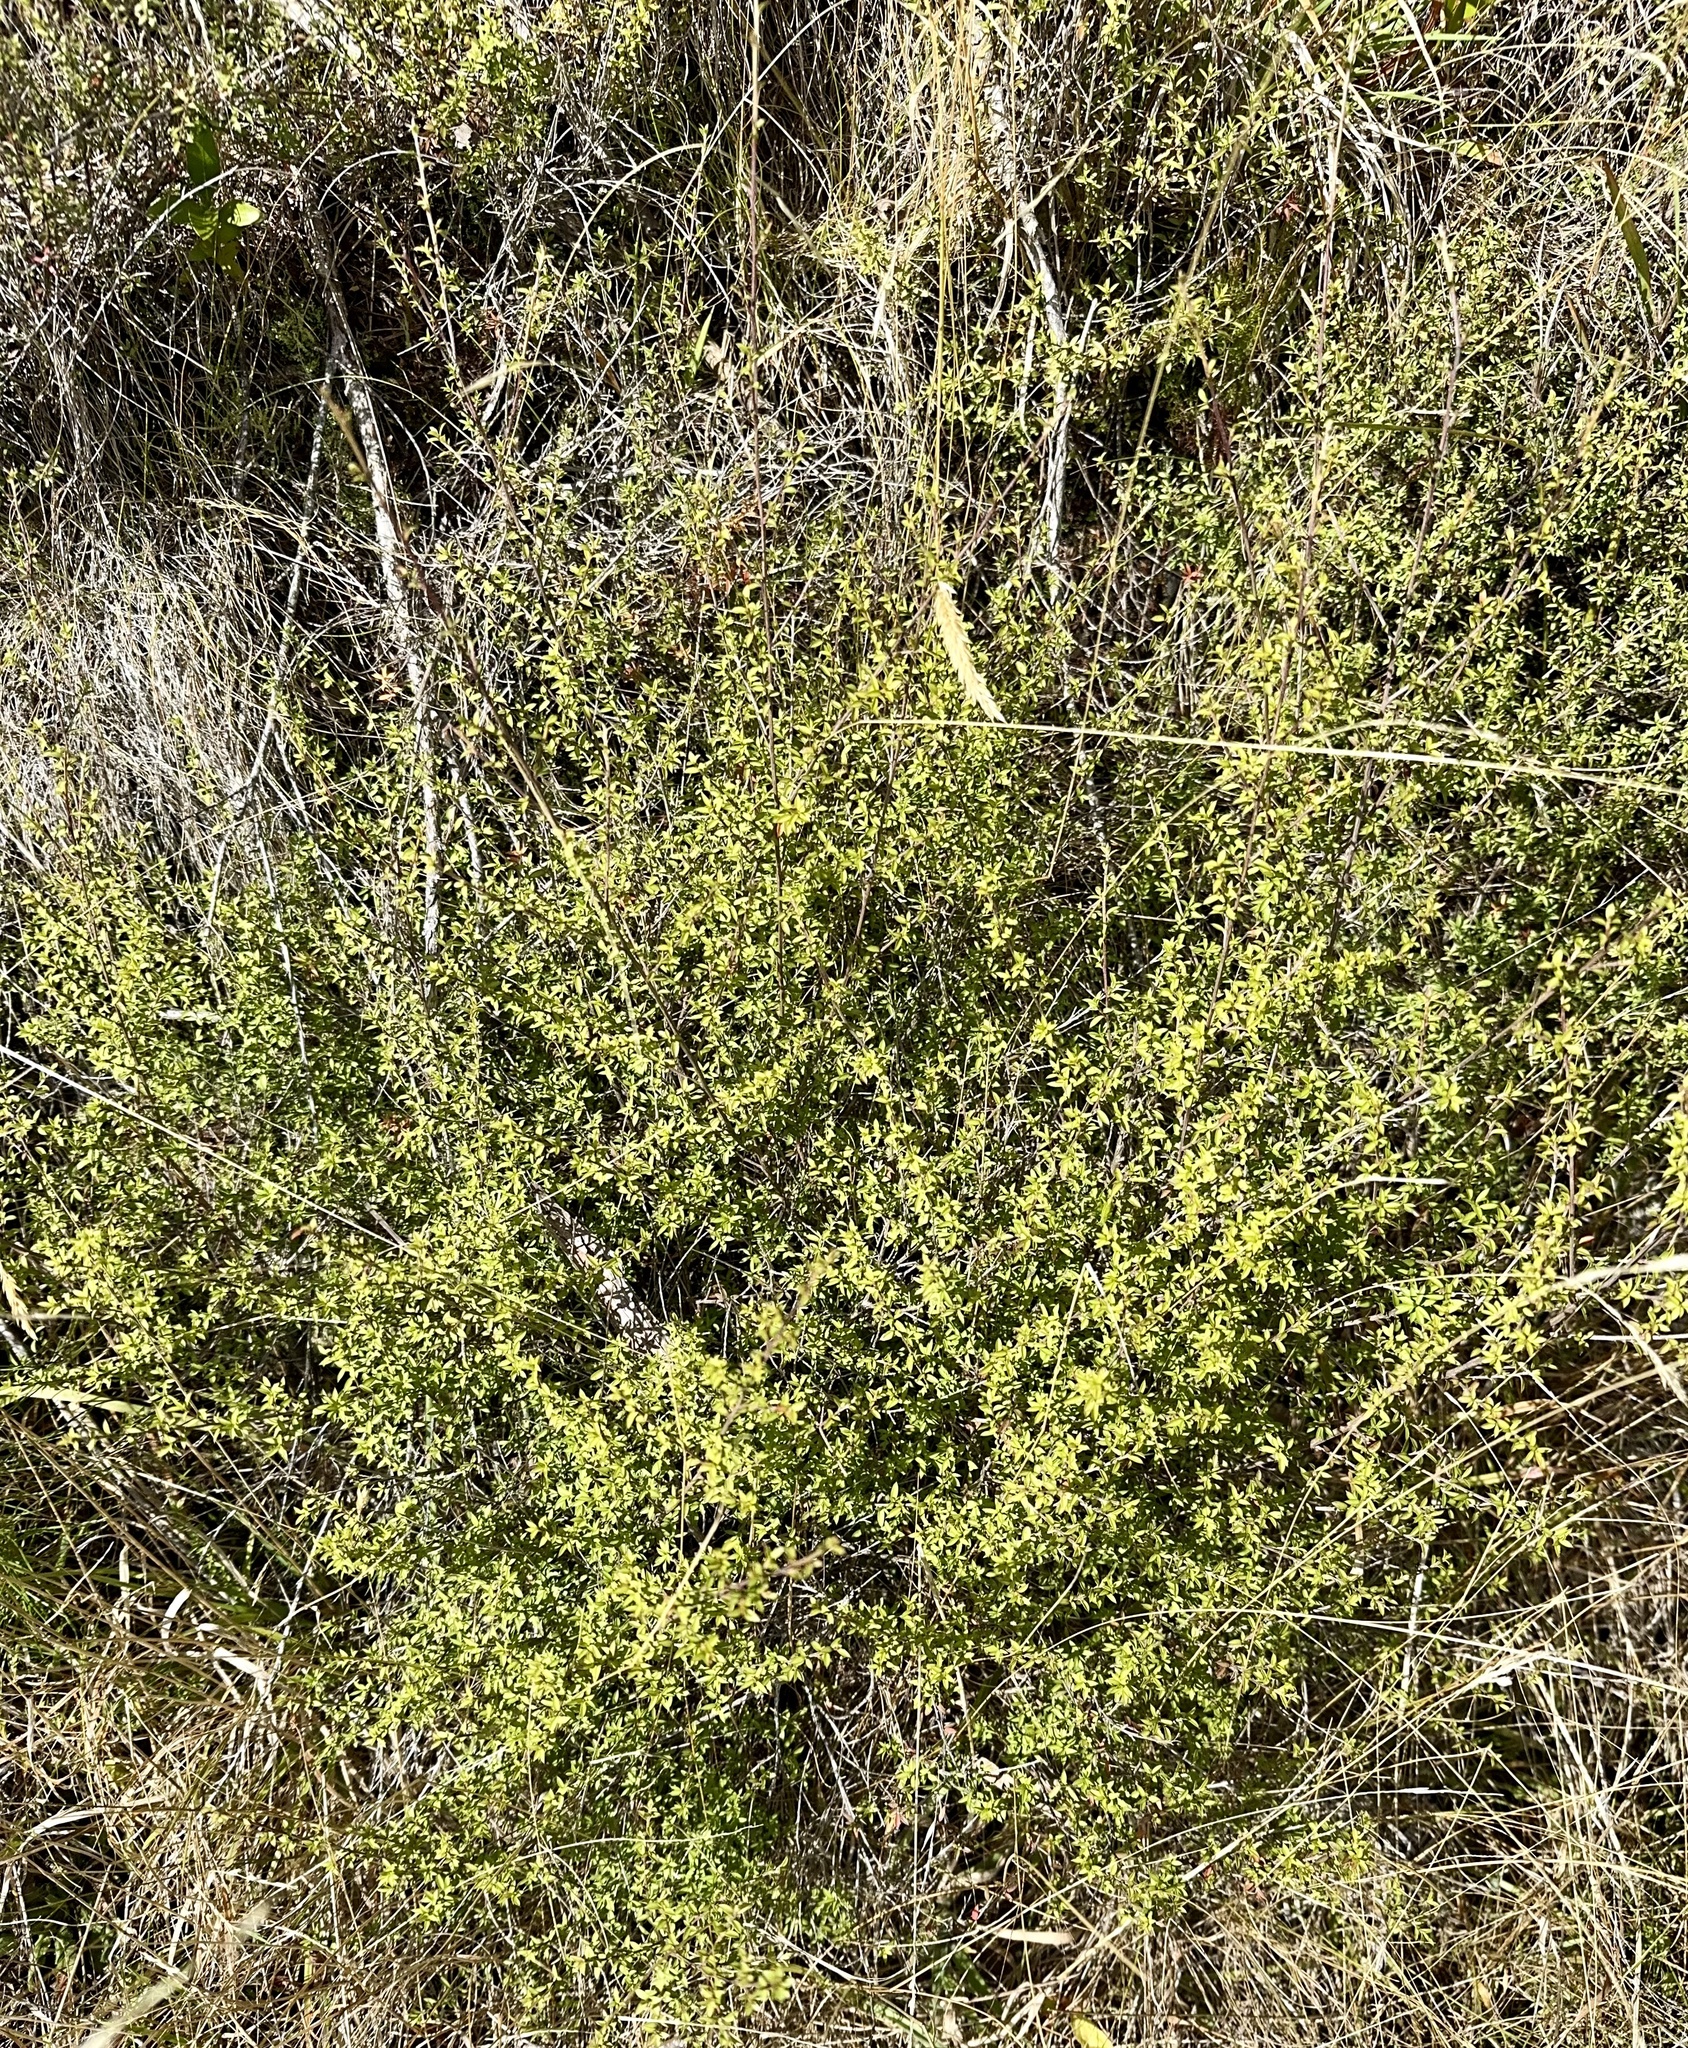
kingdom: Plantae
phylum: Tracheophyta
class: Magnoliopsida
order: Myrtales
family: Myrtaceae
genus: Leptospermum
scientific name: Leptospermum scoparium
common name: Broom tea-tree
